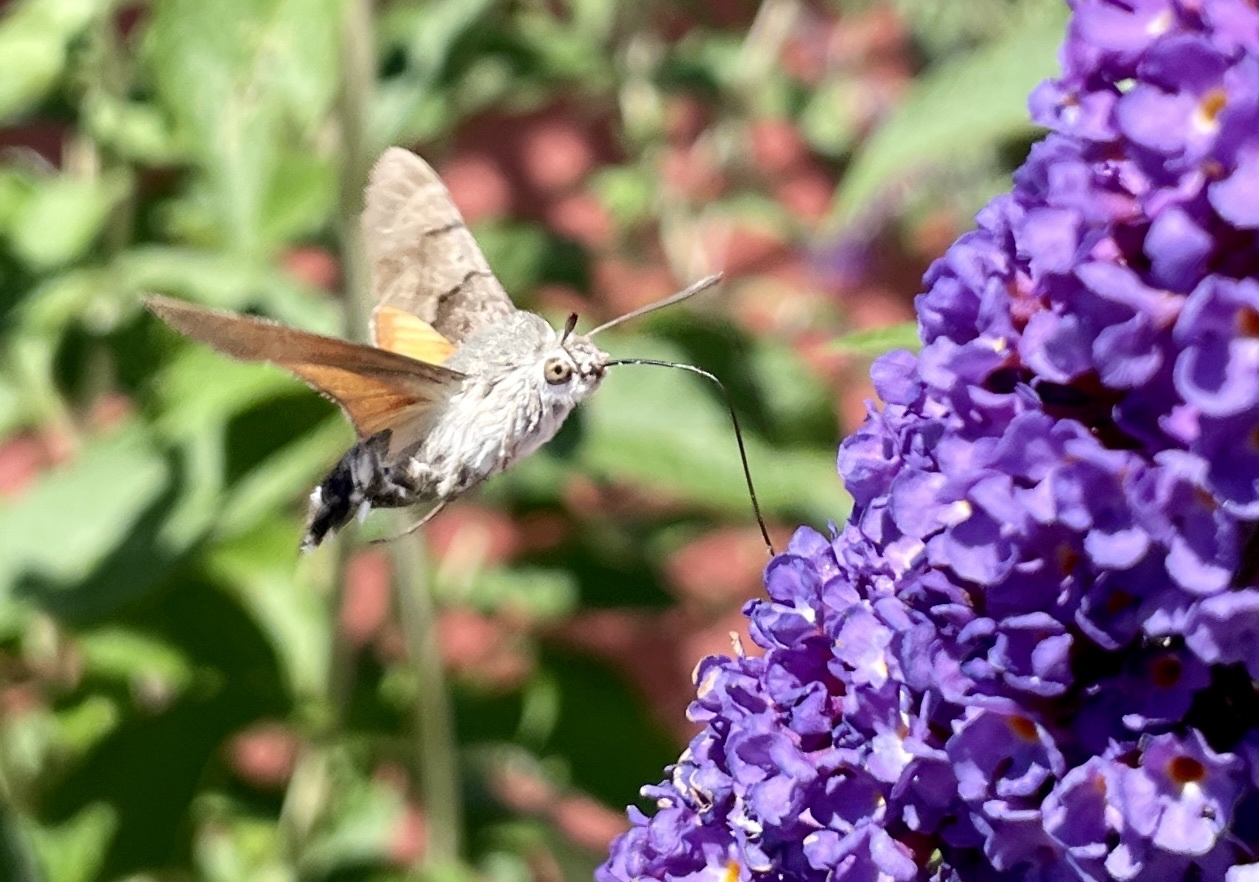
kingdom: Animalia
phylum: Arthropoda
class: Insecta
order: Lepidoptera
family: Sphingidae
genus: Macroglossum
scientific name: Macroglossum stellatarum
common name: Humming-bird hawk-moth
